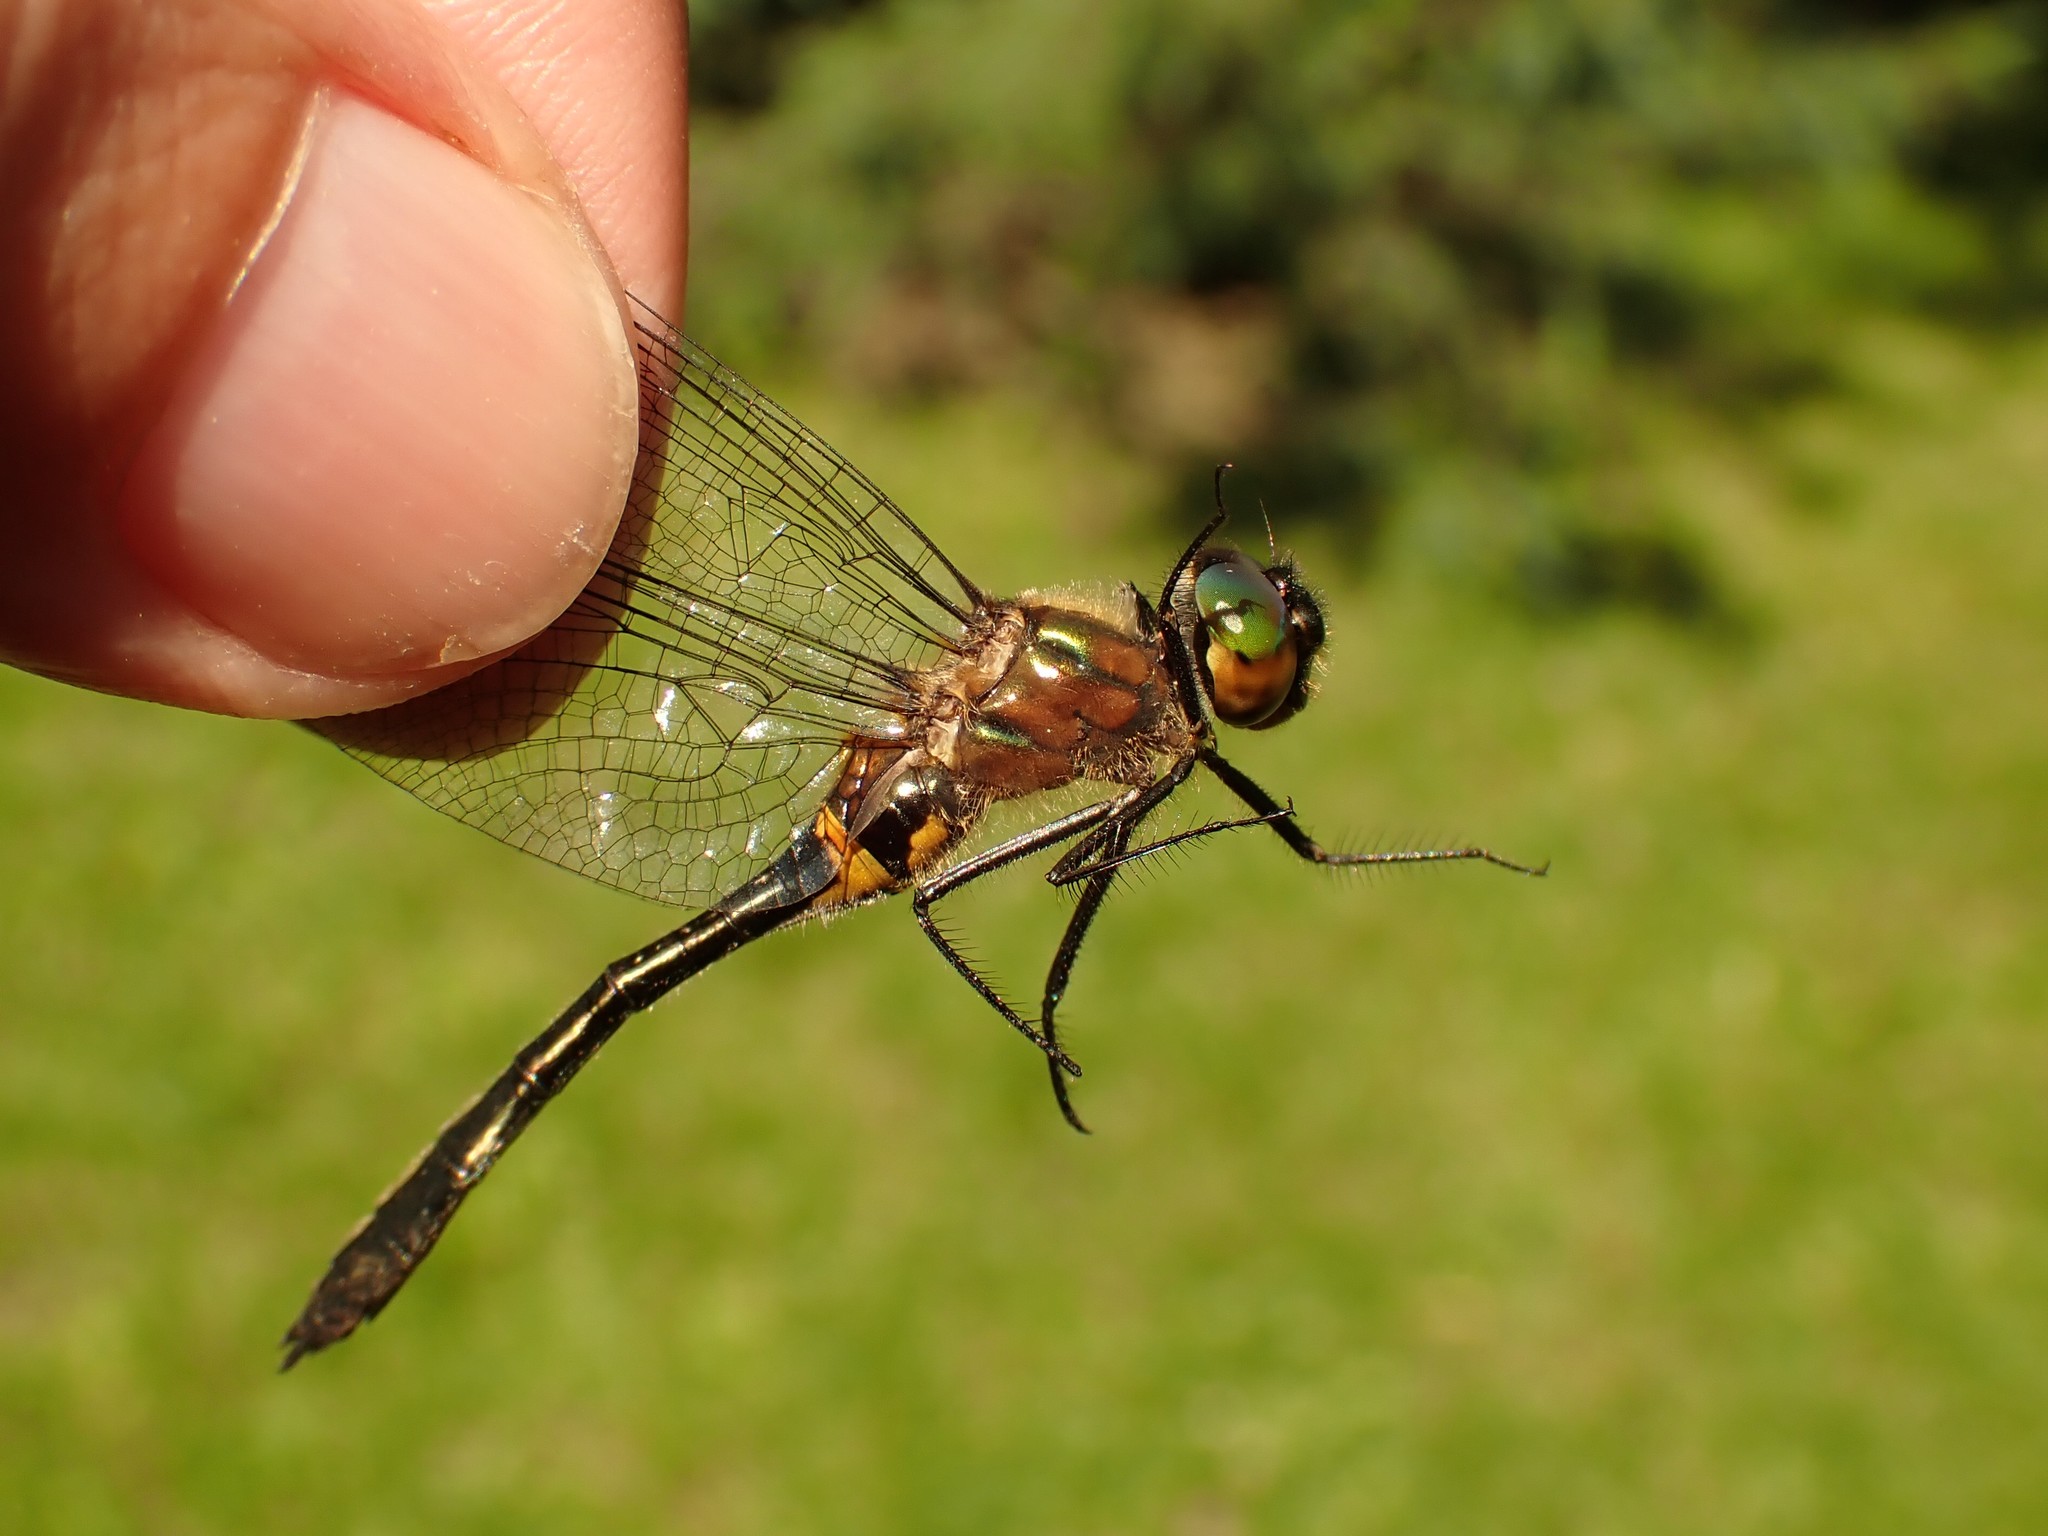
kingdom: Animalia
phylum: Arthropoda
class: Insecta
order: Odonata
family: Corduliidae
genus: Dorocordulia
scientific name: Dorocordulia libera
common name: Racket-tailed emerald
